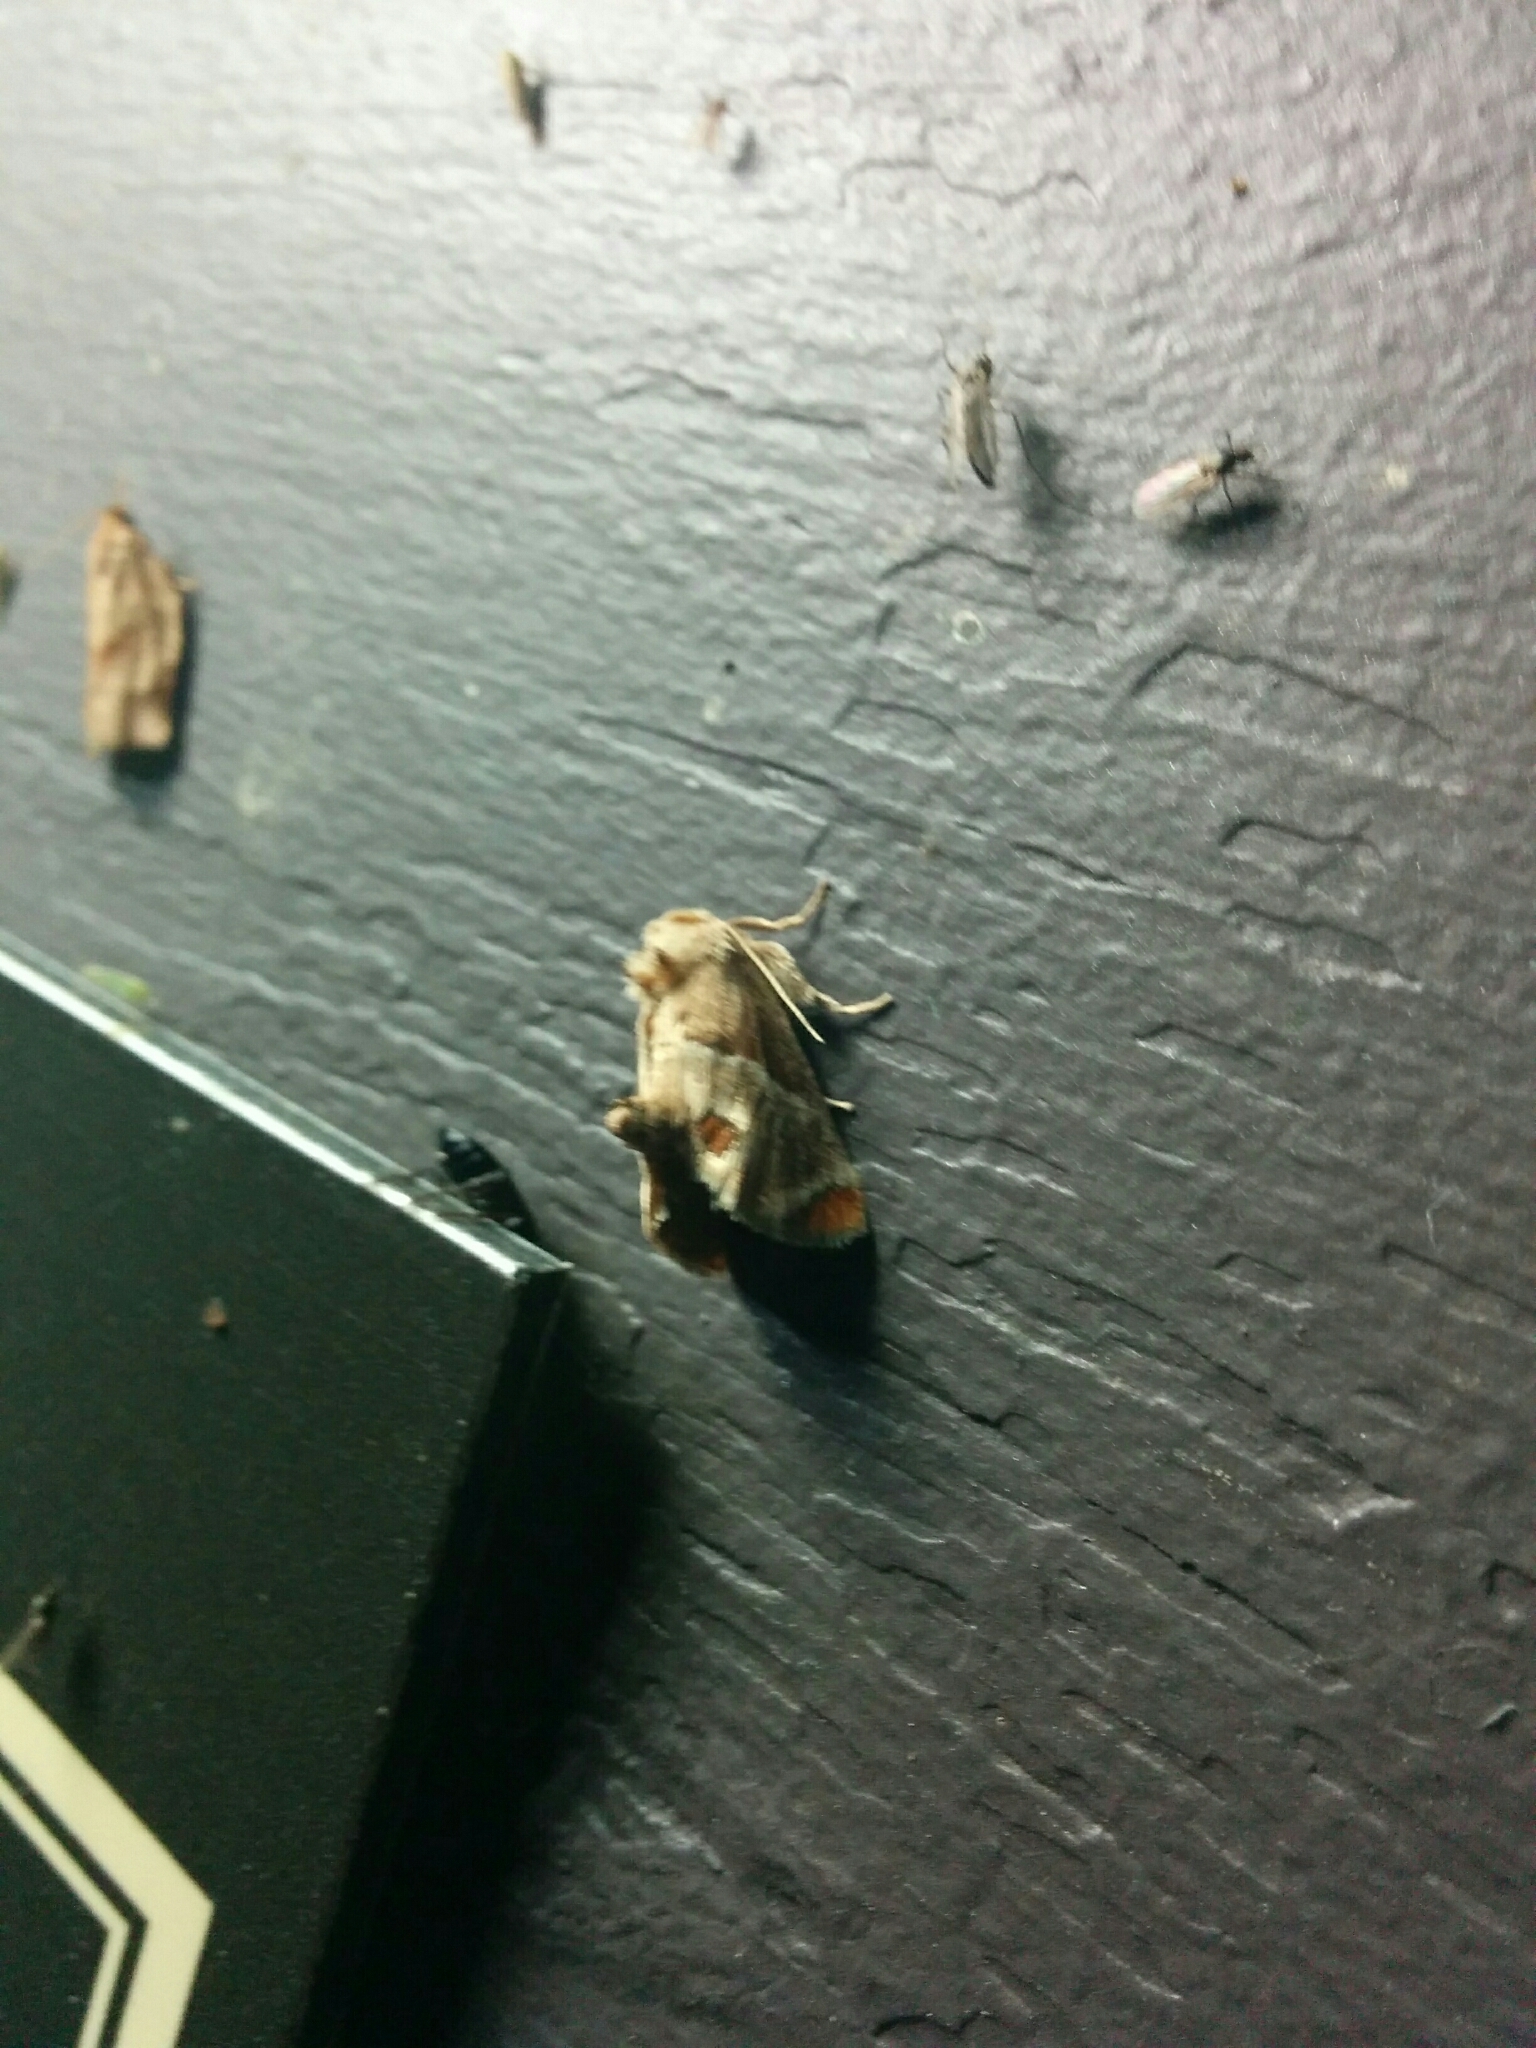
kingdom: Animalia
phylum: Arthropoda
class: Insecta
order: Lepidoptera
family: Limacodidae
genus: Apoda
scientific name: Apoda biguttata
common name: Shagreened slug moth
